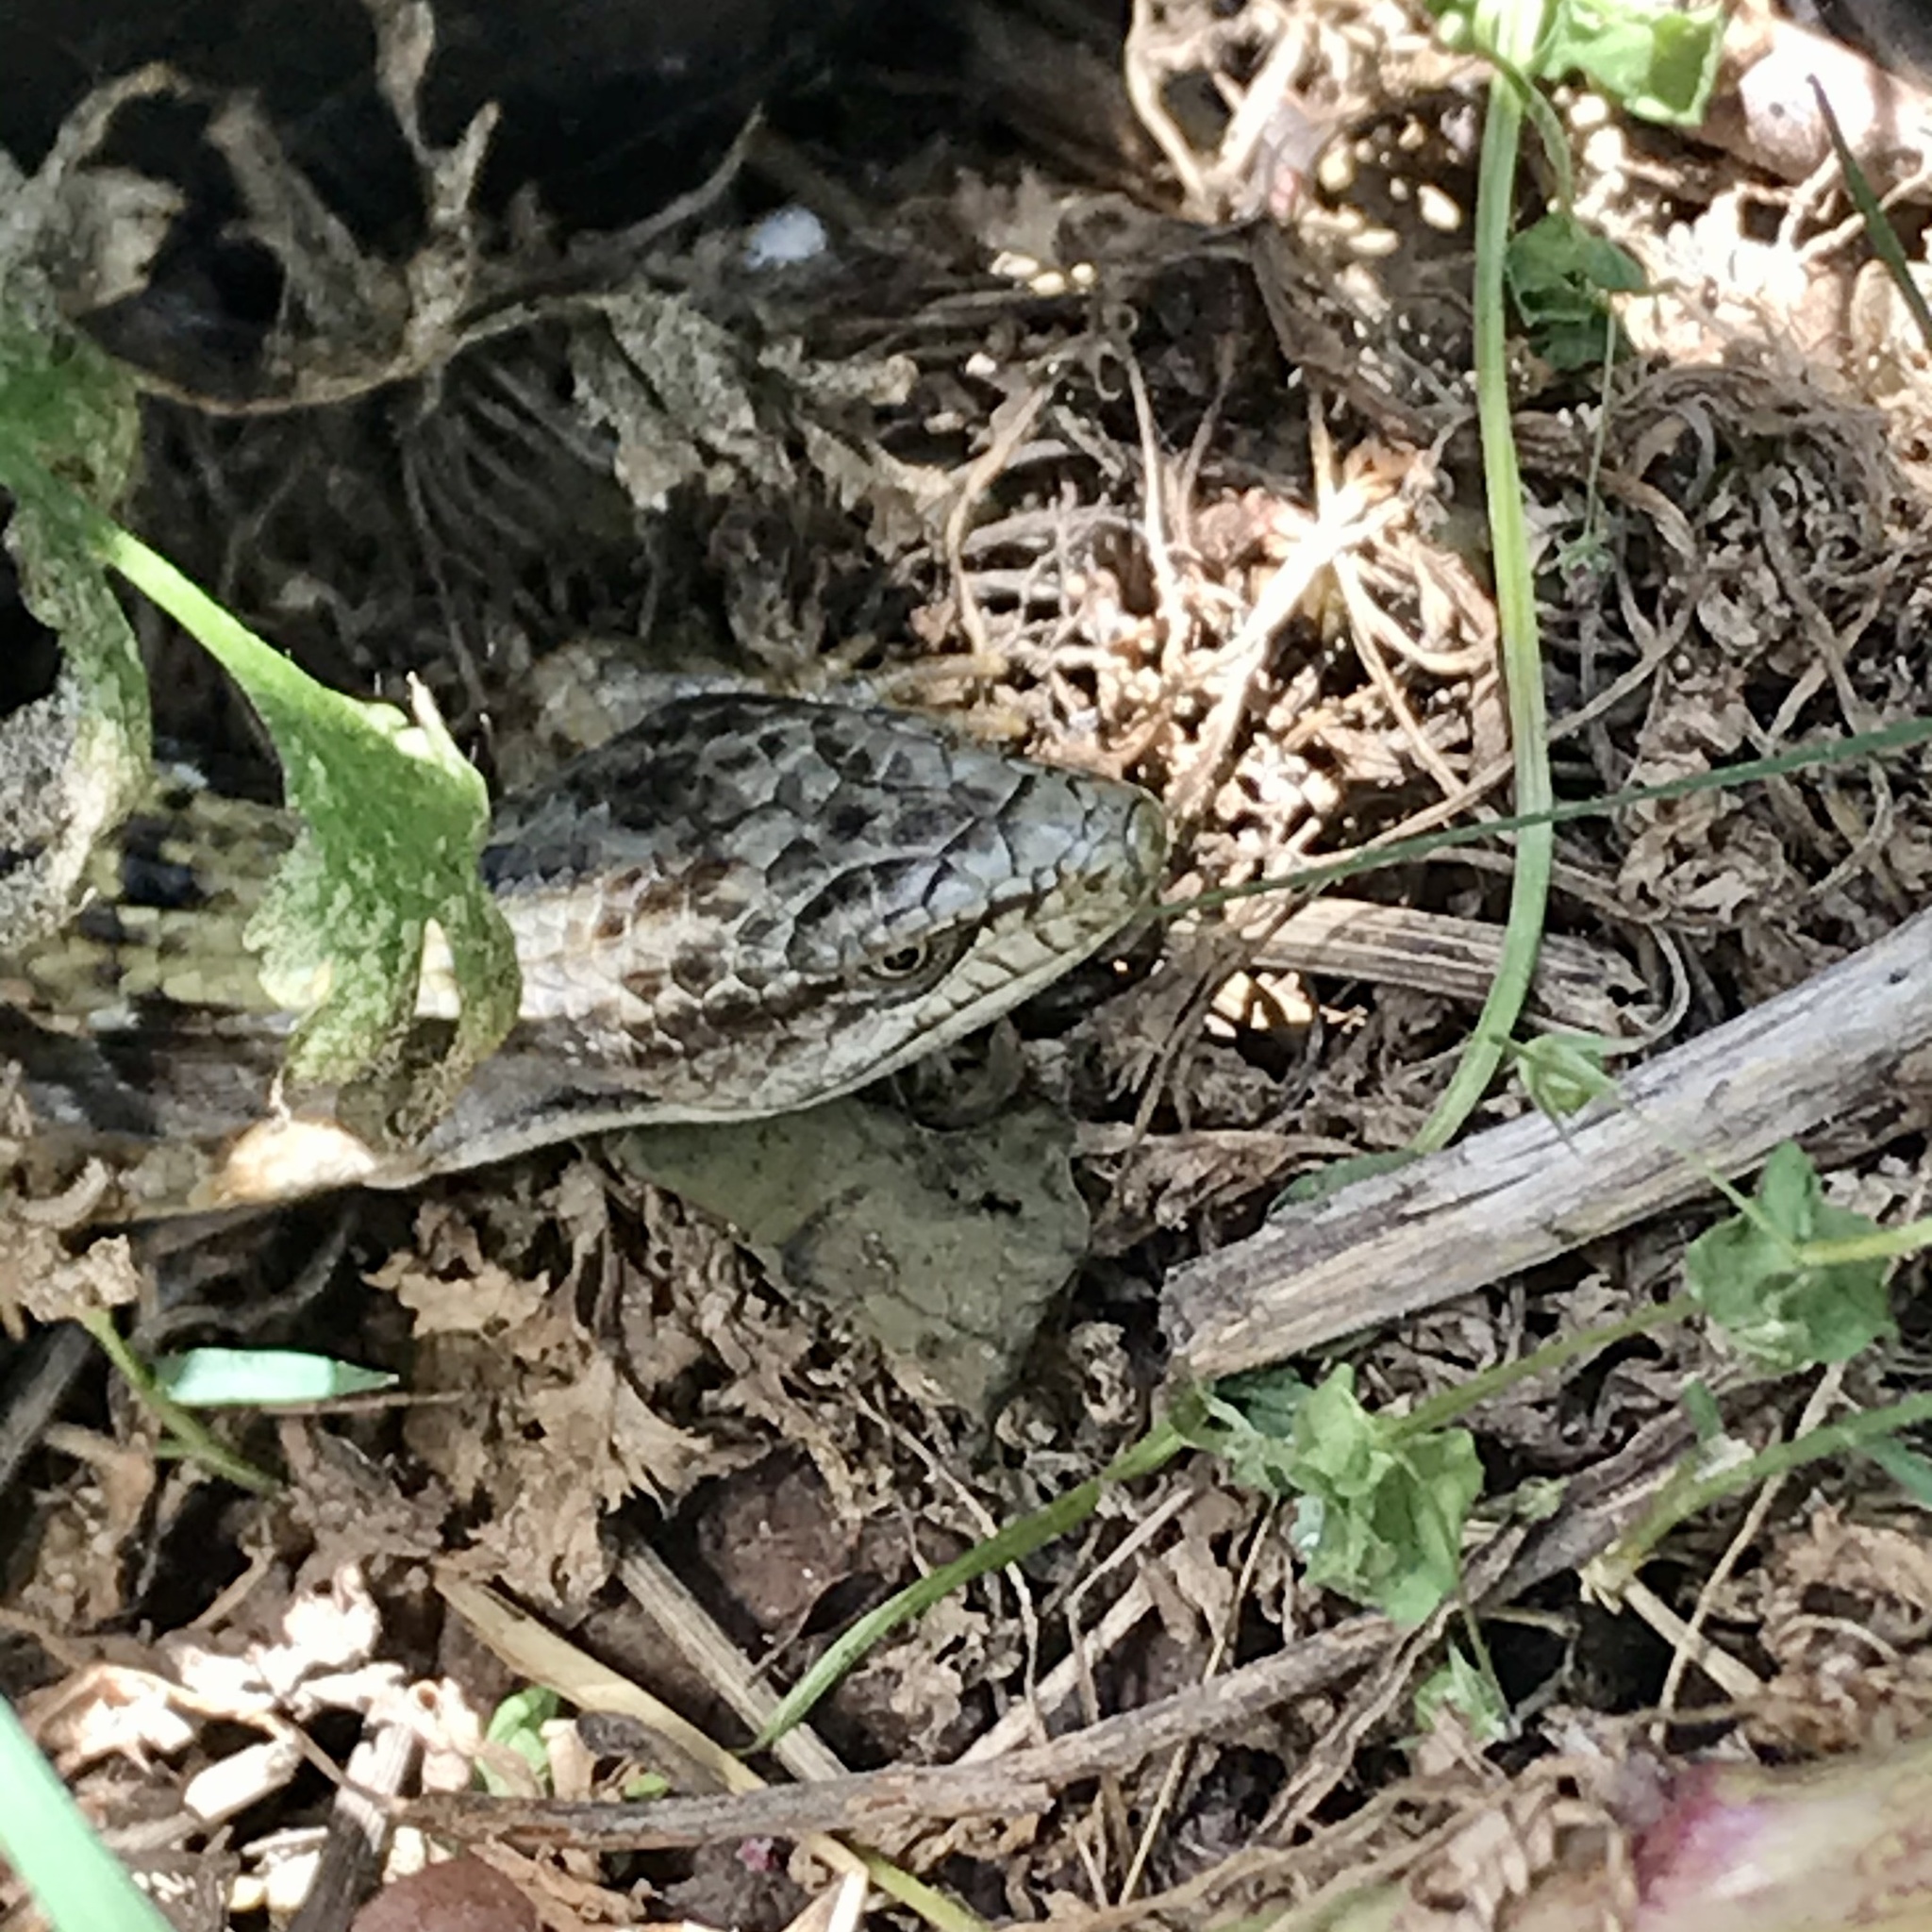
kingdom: Animalia
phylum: Chordata
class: Squamata
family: Anguidae
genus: Elgaria
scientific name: Elgaria multicarinata
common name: Southern alligator lizard
